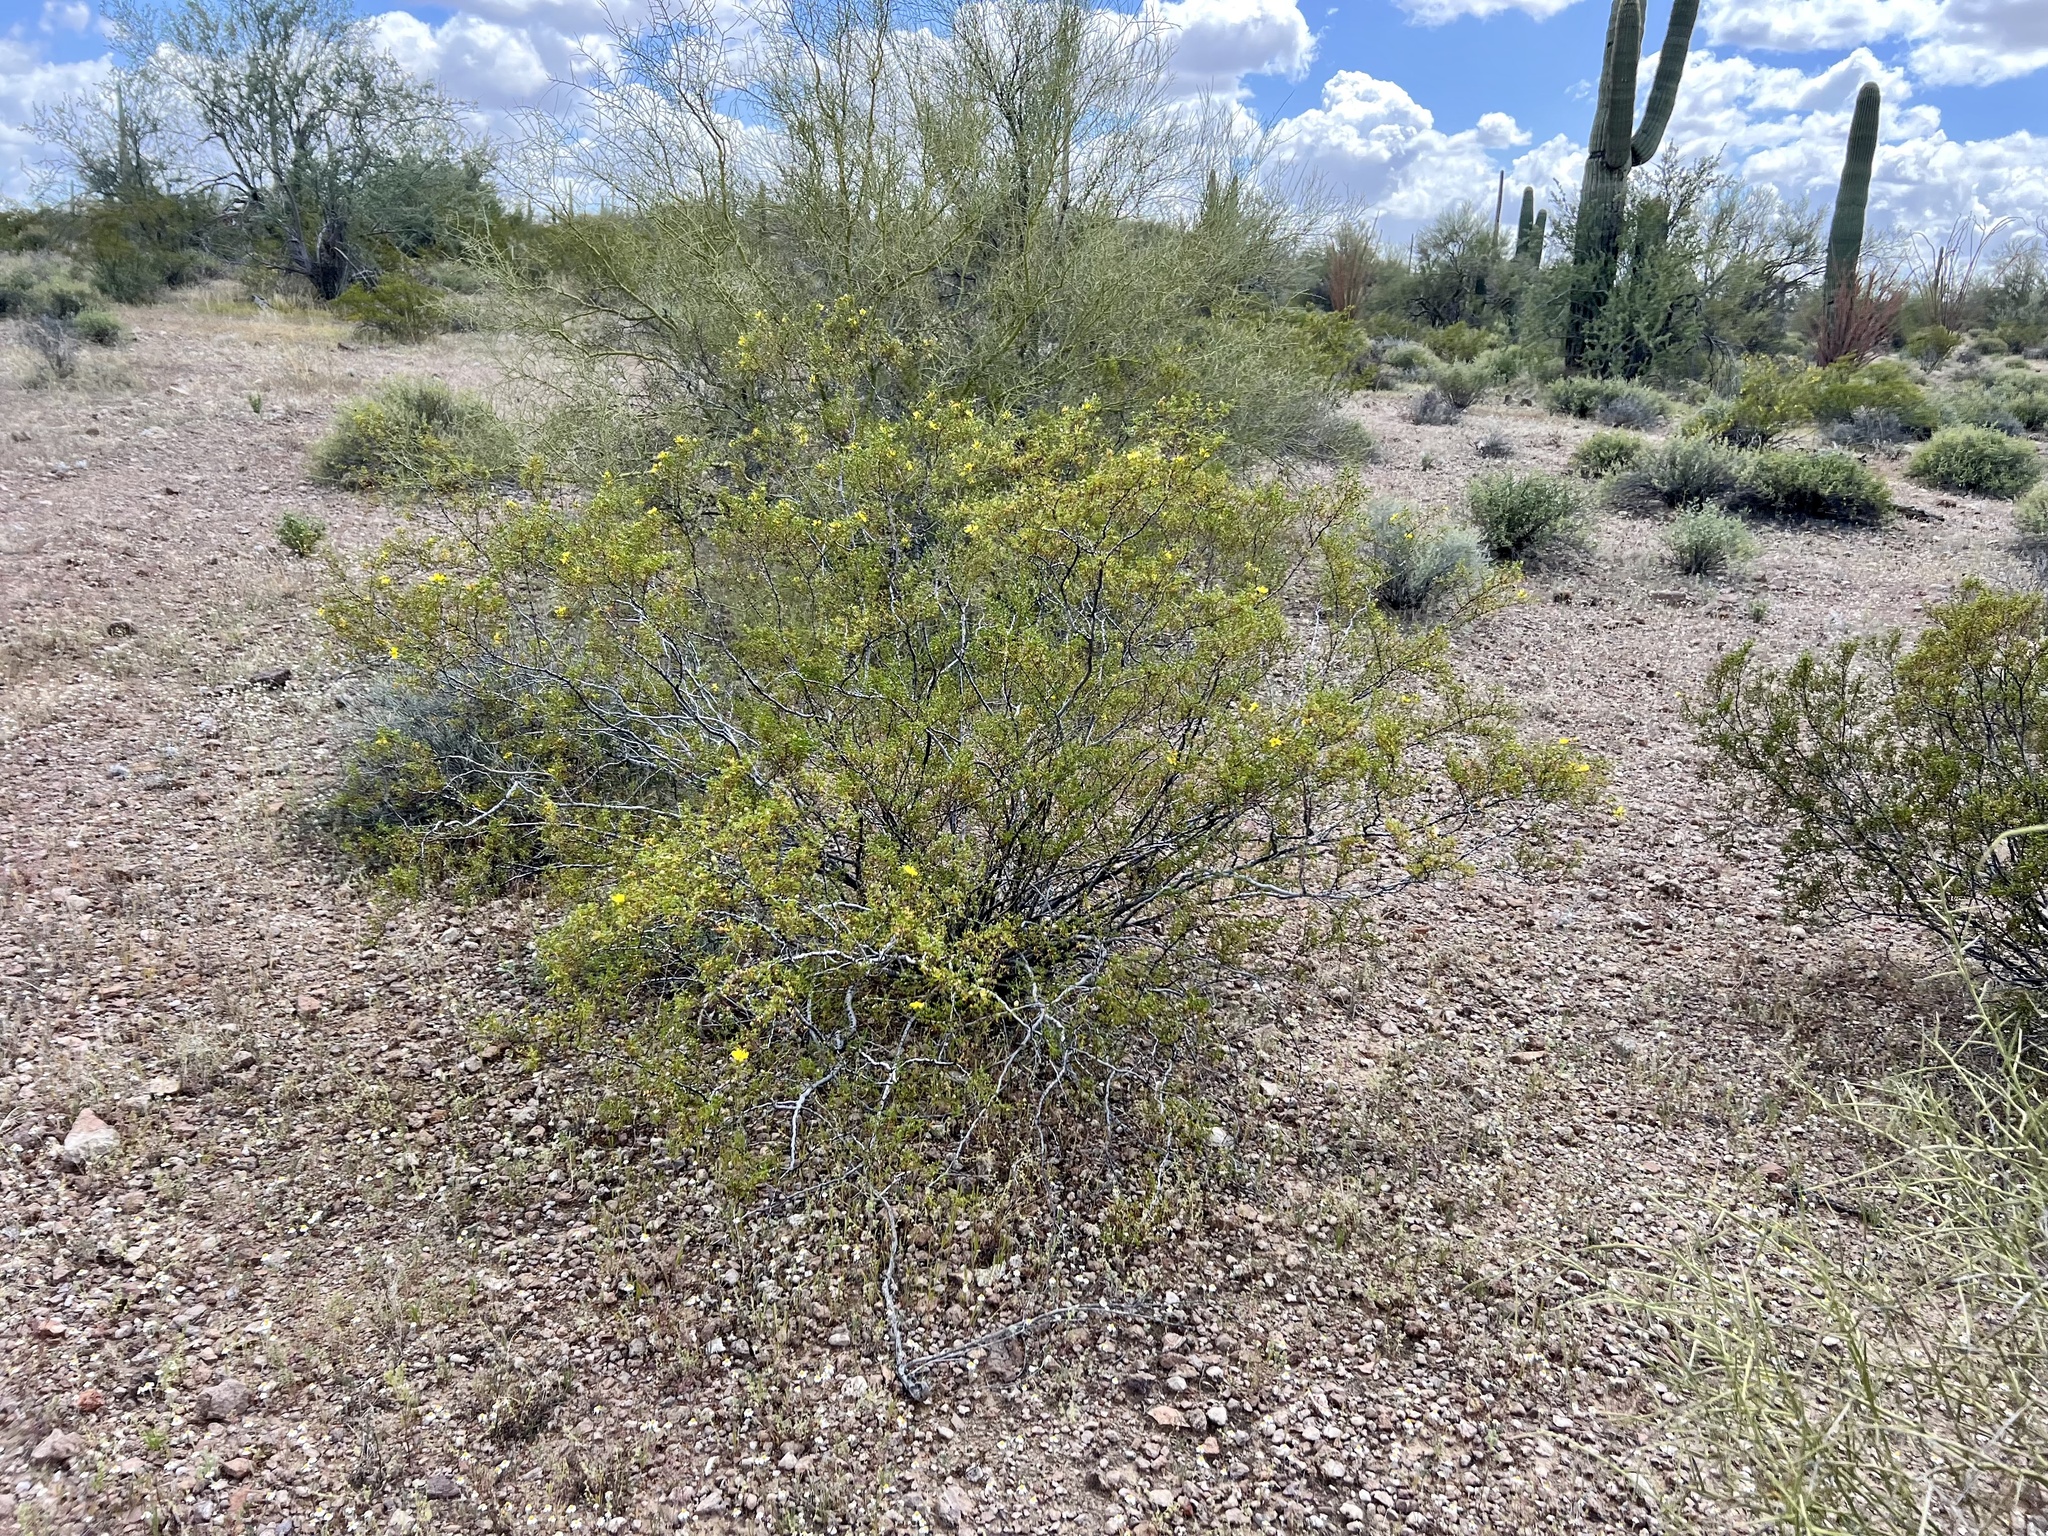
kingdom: Plantae
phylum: Tracheophyta
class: Magnoliopsida
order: Zygophyllales
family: Zygophyllaceae
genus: Larrea
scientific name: Larrea tridentata
